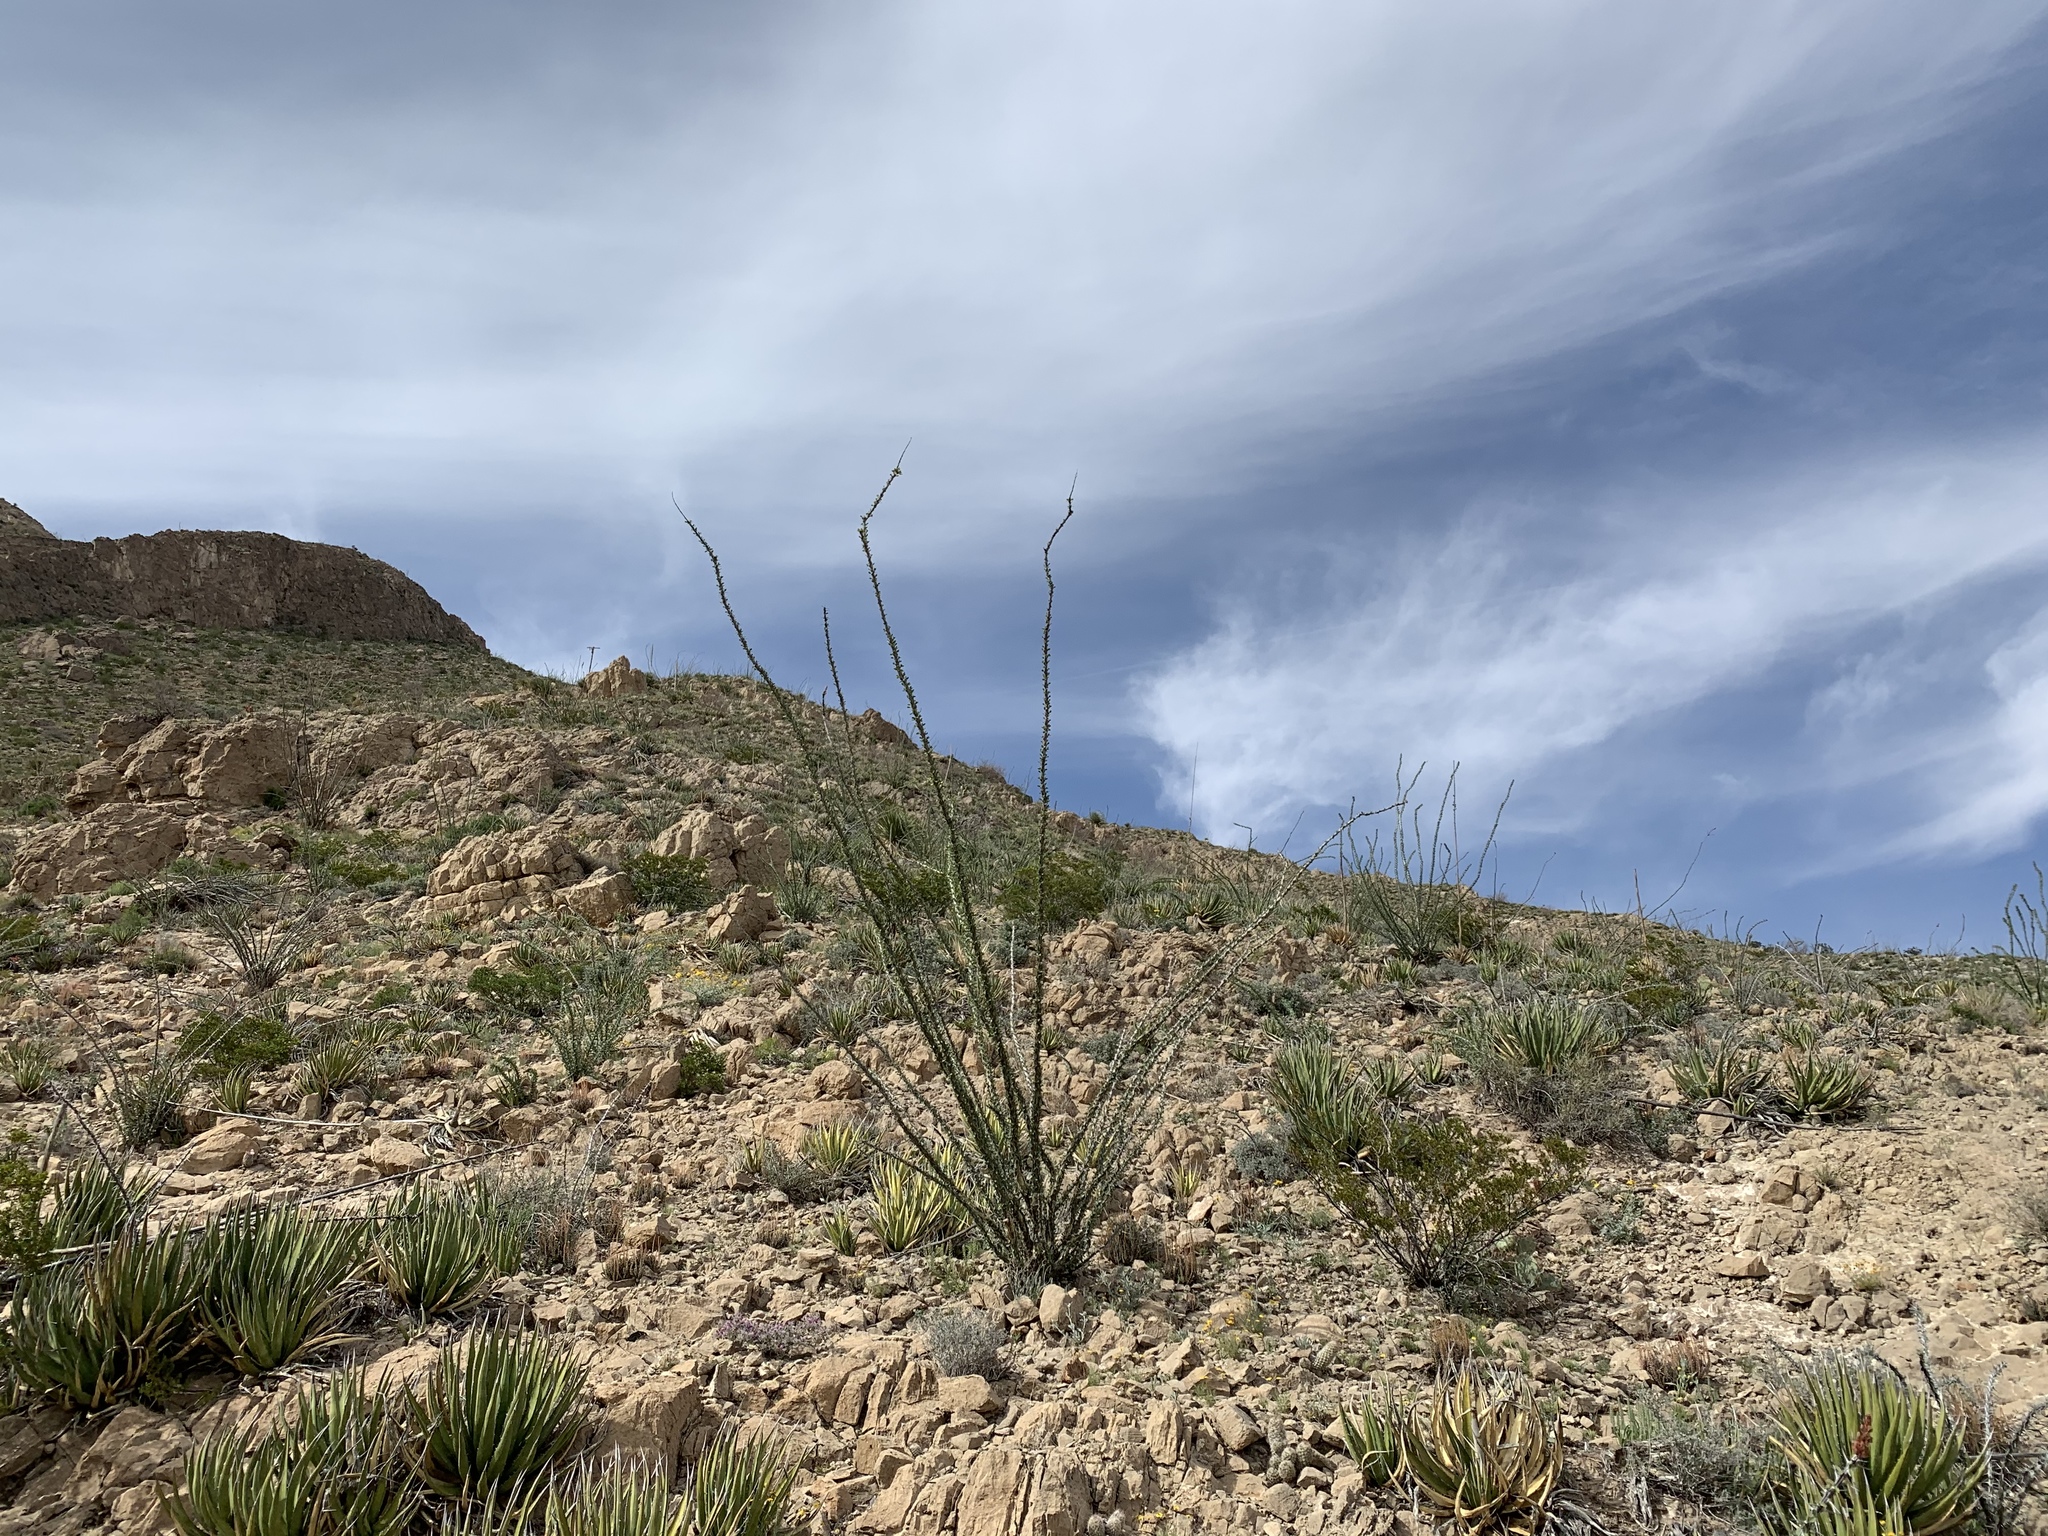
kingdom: Plantae
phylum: Tracheophyta
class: Magnoliopsida
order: Ericales
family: Fouquieriaceae
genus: Fouquieria
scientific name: Fouquieria splendens
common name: Vine-cactus
